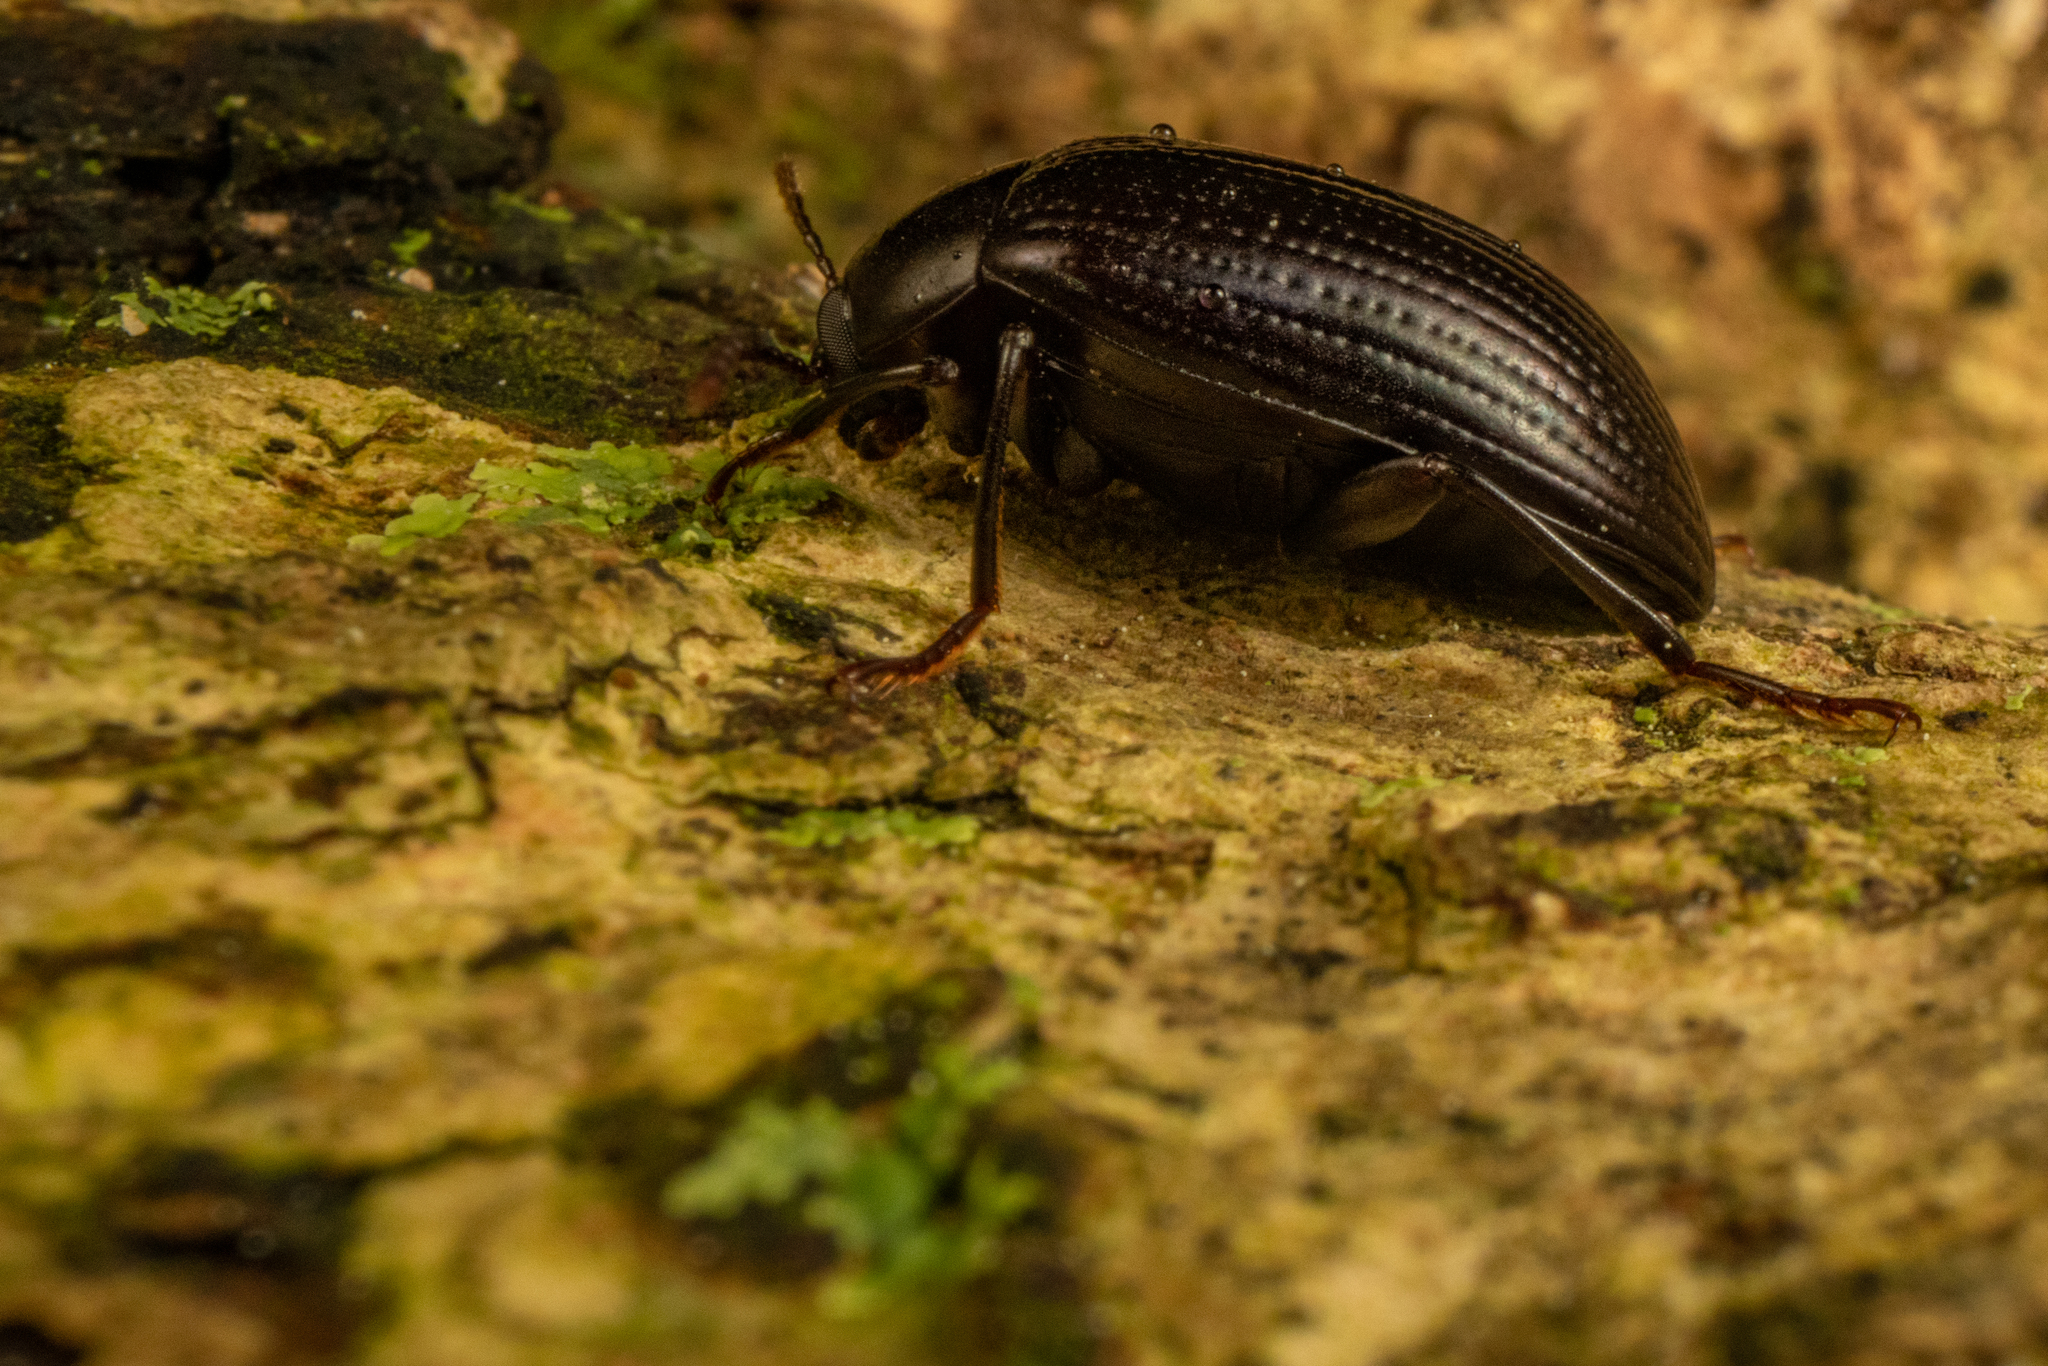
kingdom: Animalia
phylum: Arthropoda
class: Insecta
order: Coleoptera
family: Tenebrionidae
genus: Amarygmus
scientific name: Amarygmus
